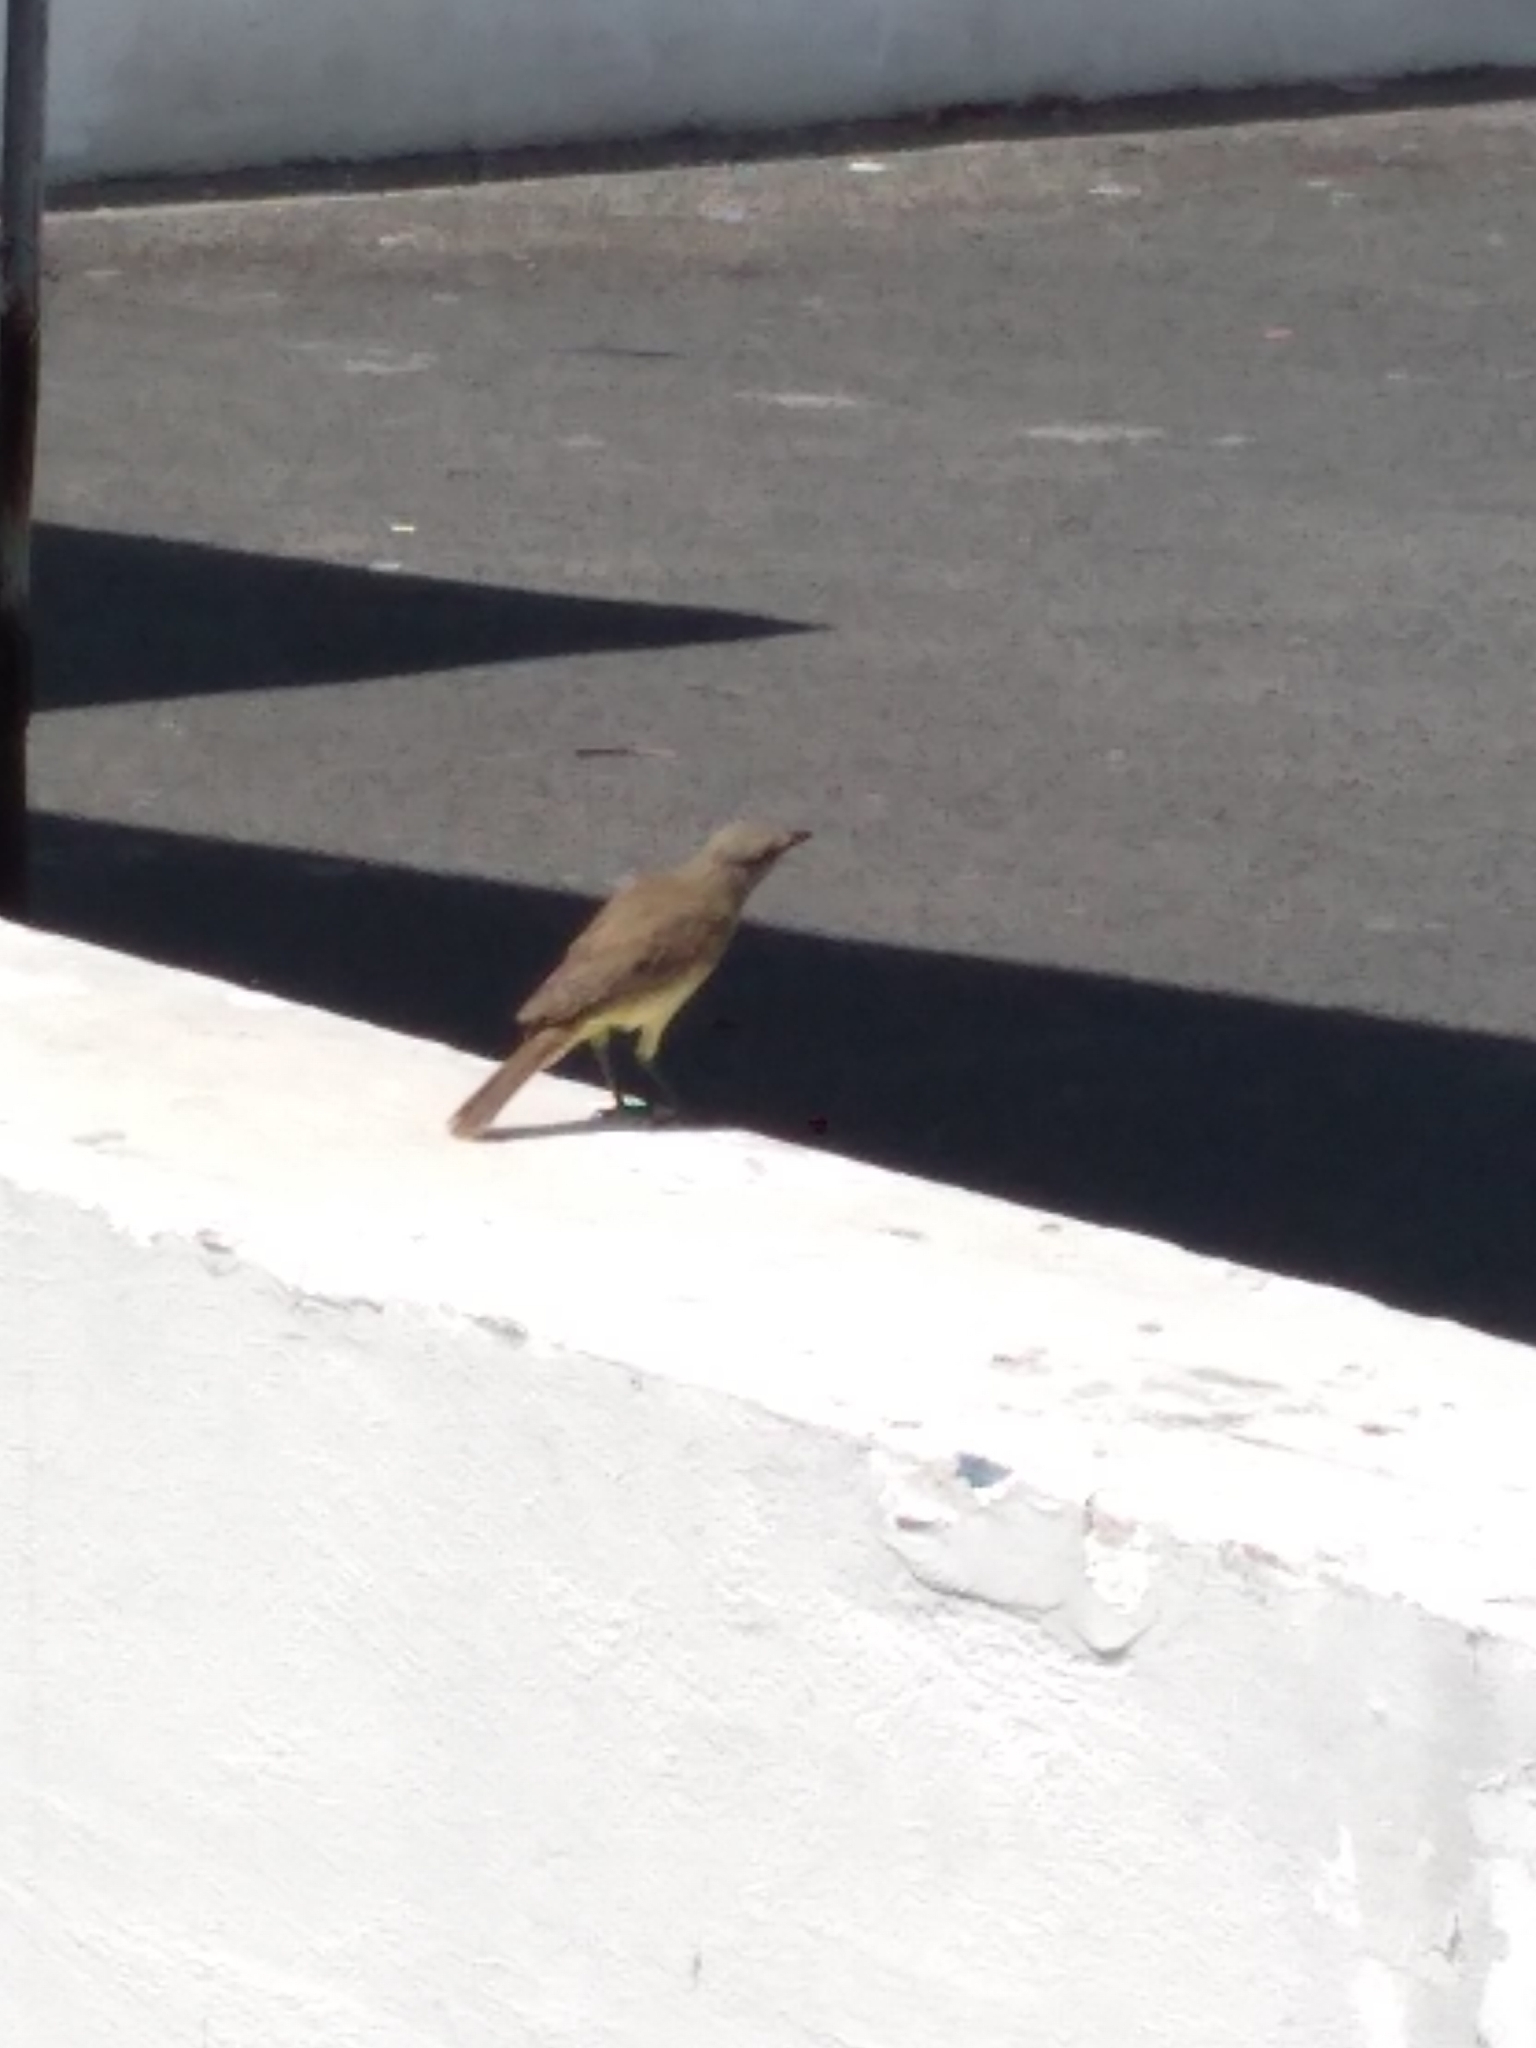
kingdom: Animalia
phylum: Chordata
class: Aves
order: Passeriformes
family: Tyrannidae
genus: Machetornis
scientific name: Machetornis rixosa
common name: Cattle tyrant
